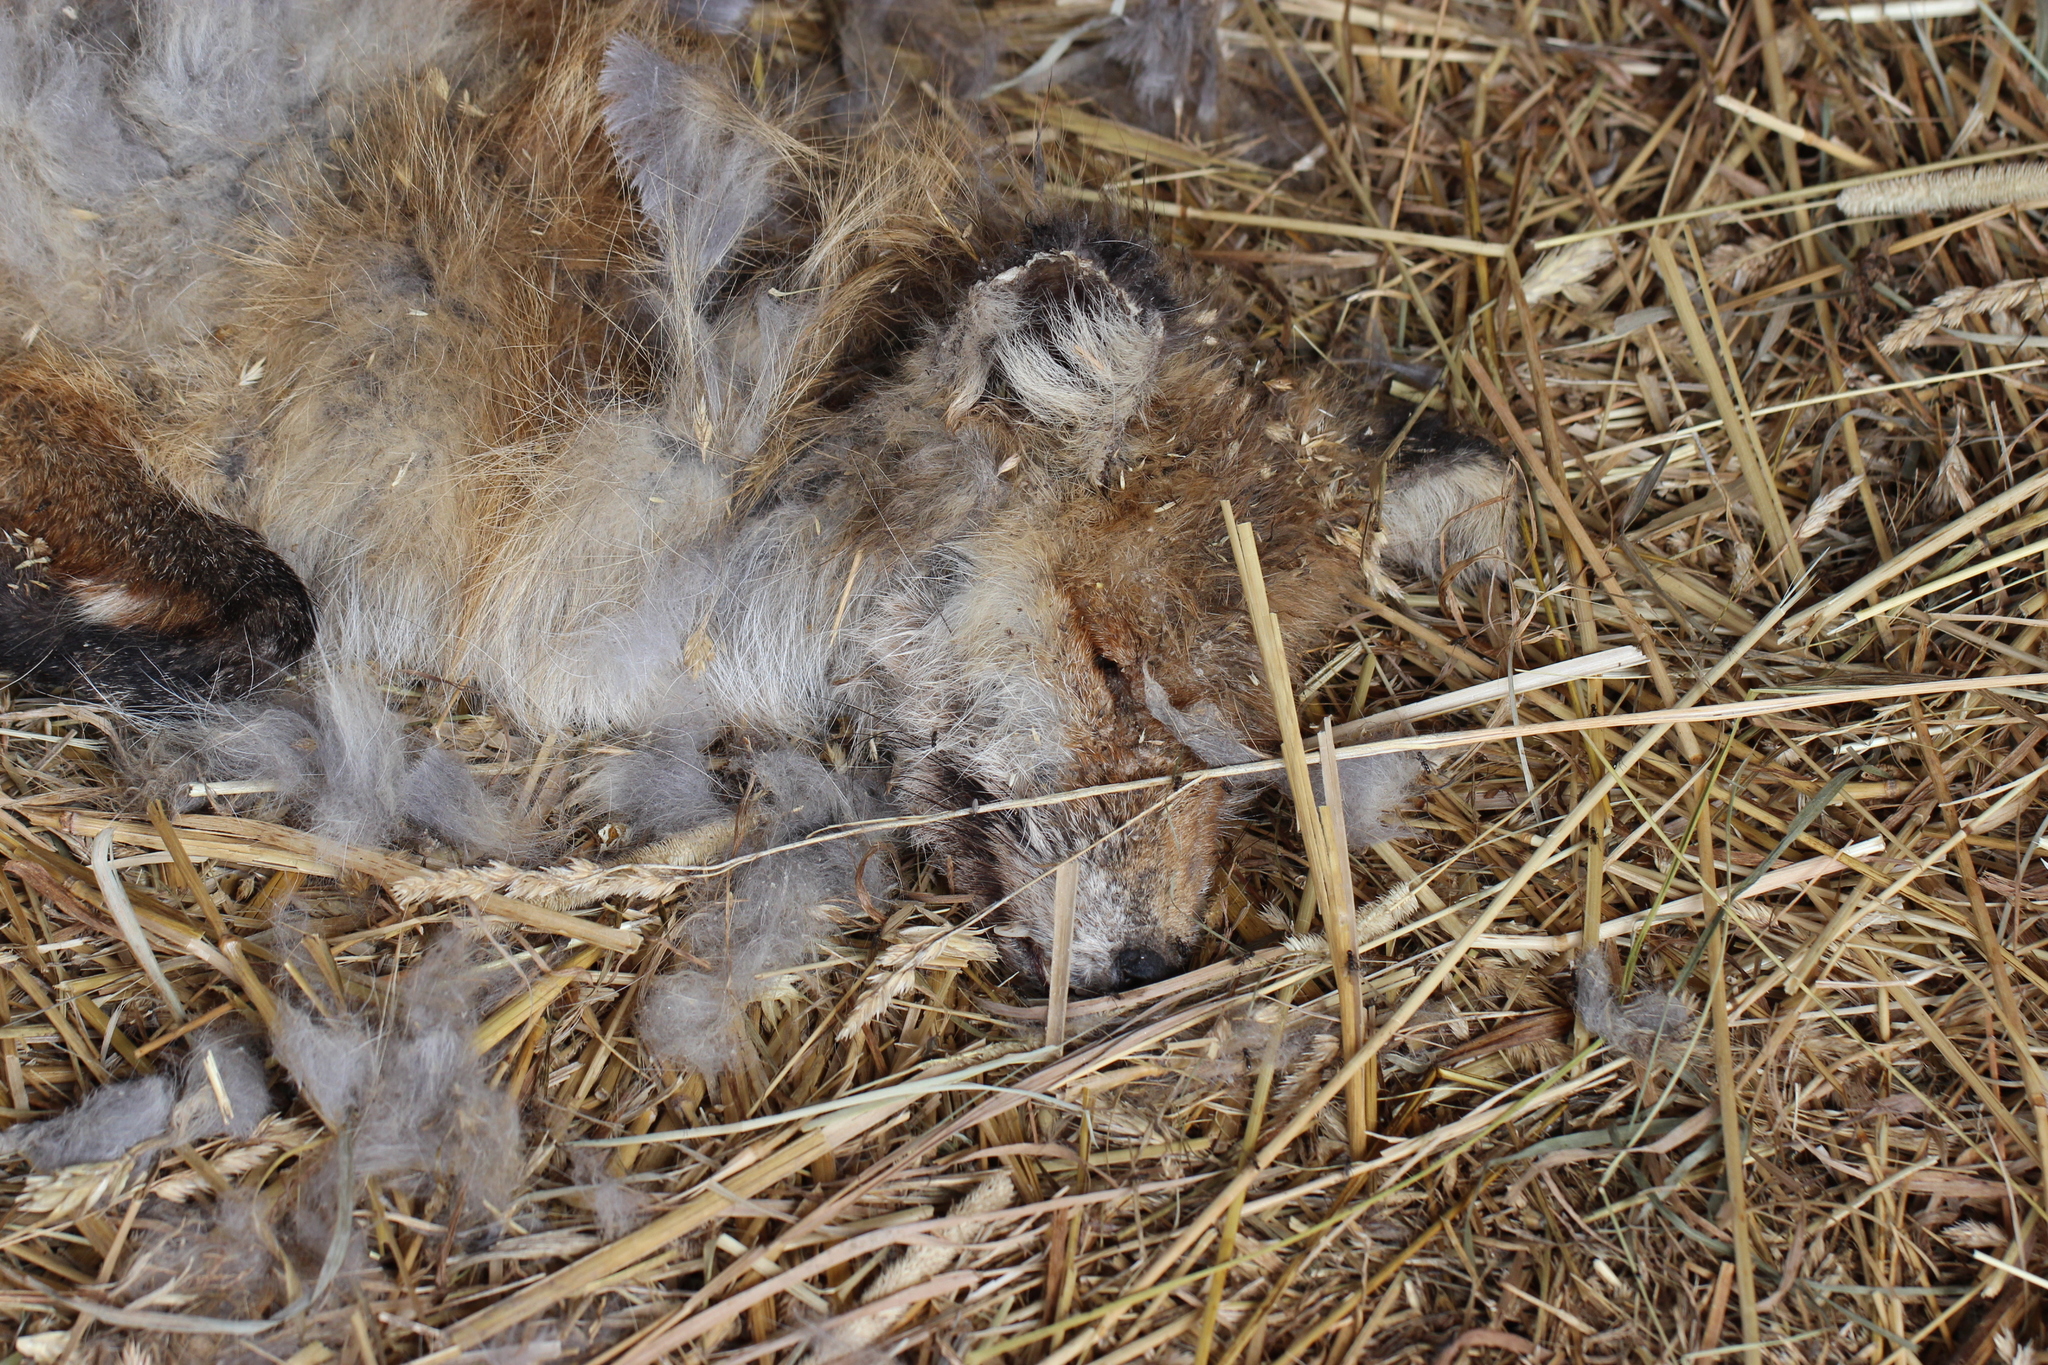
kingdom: Animalia
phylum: Chordata
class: Mammalia
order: Carnivora
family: Canidae
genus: Vulpes
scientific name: Vulpes vulpes
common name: Red fox
